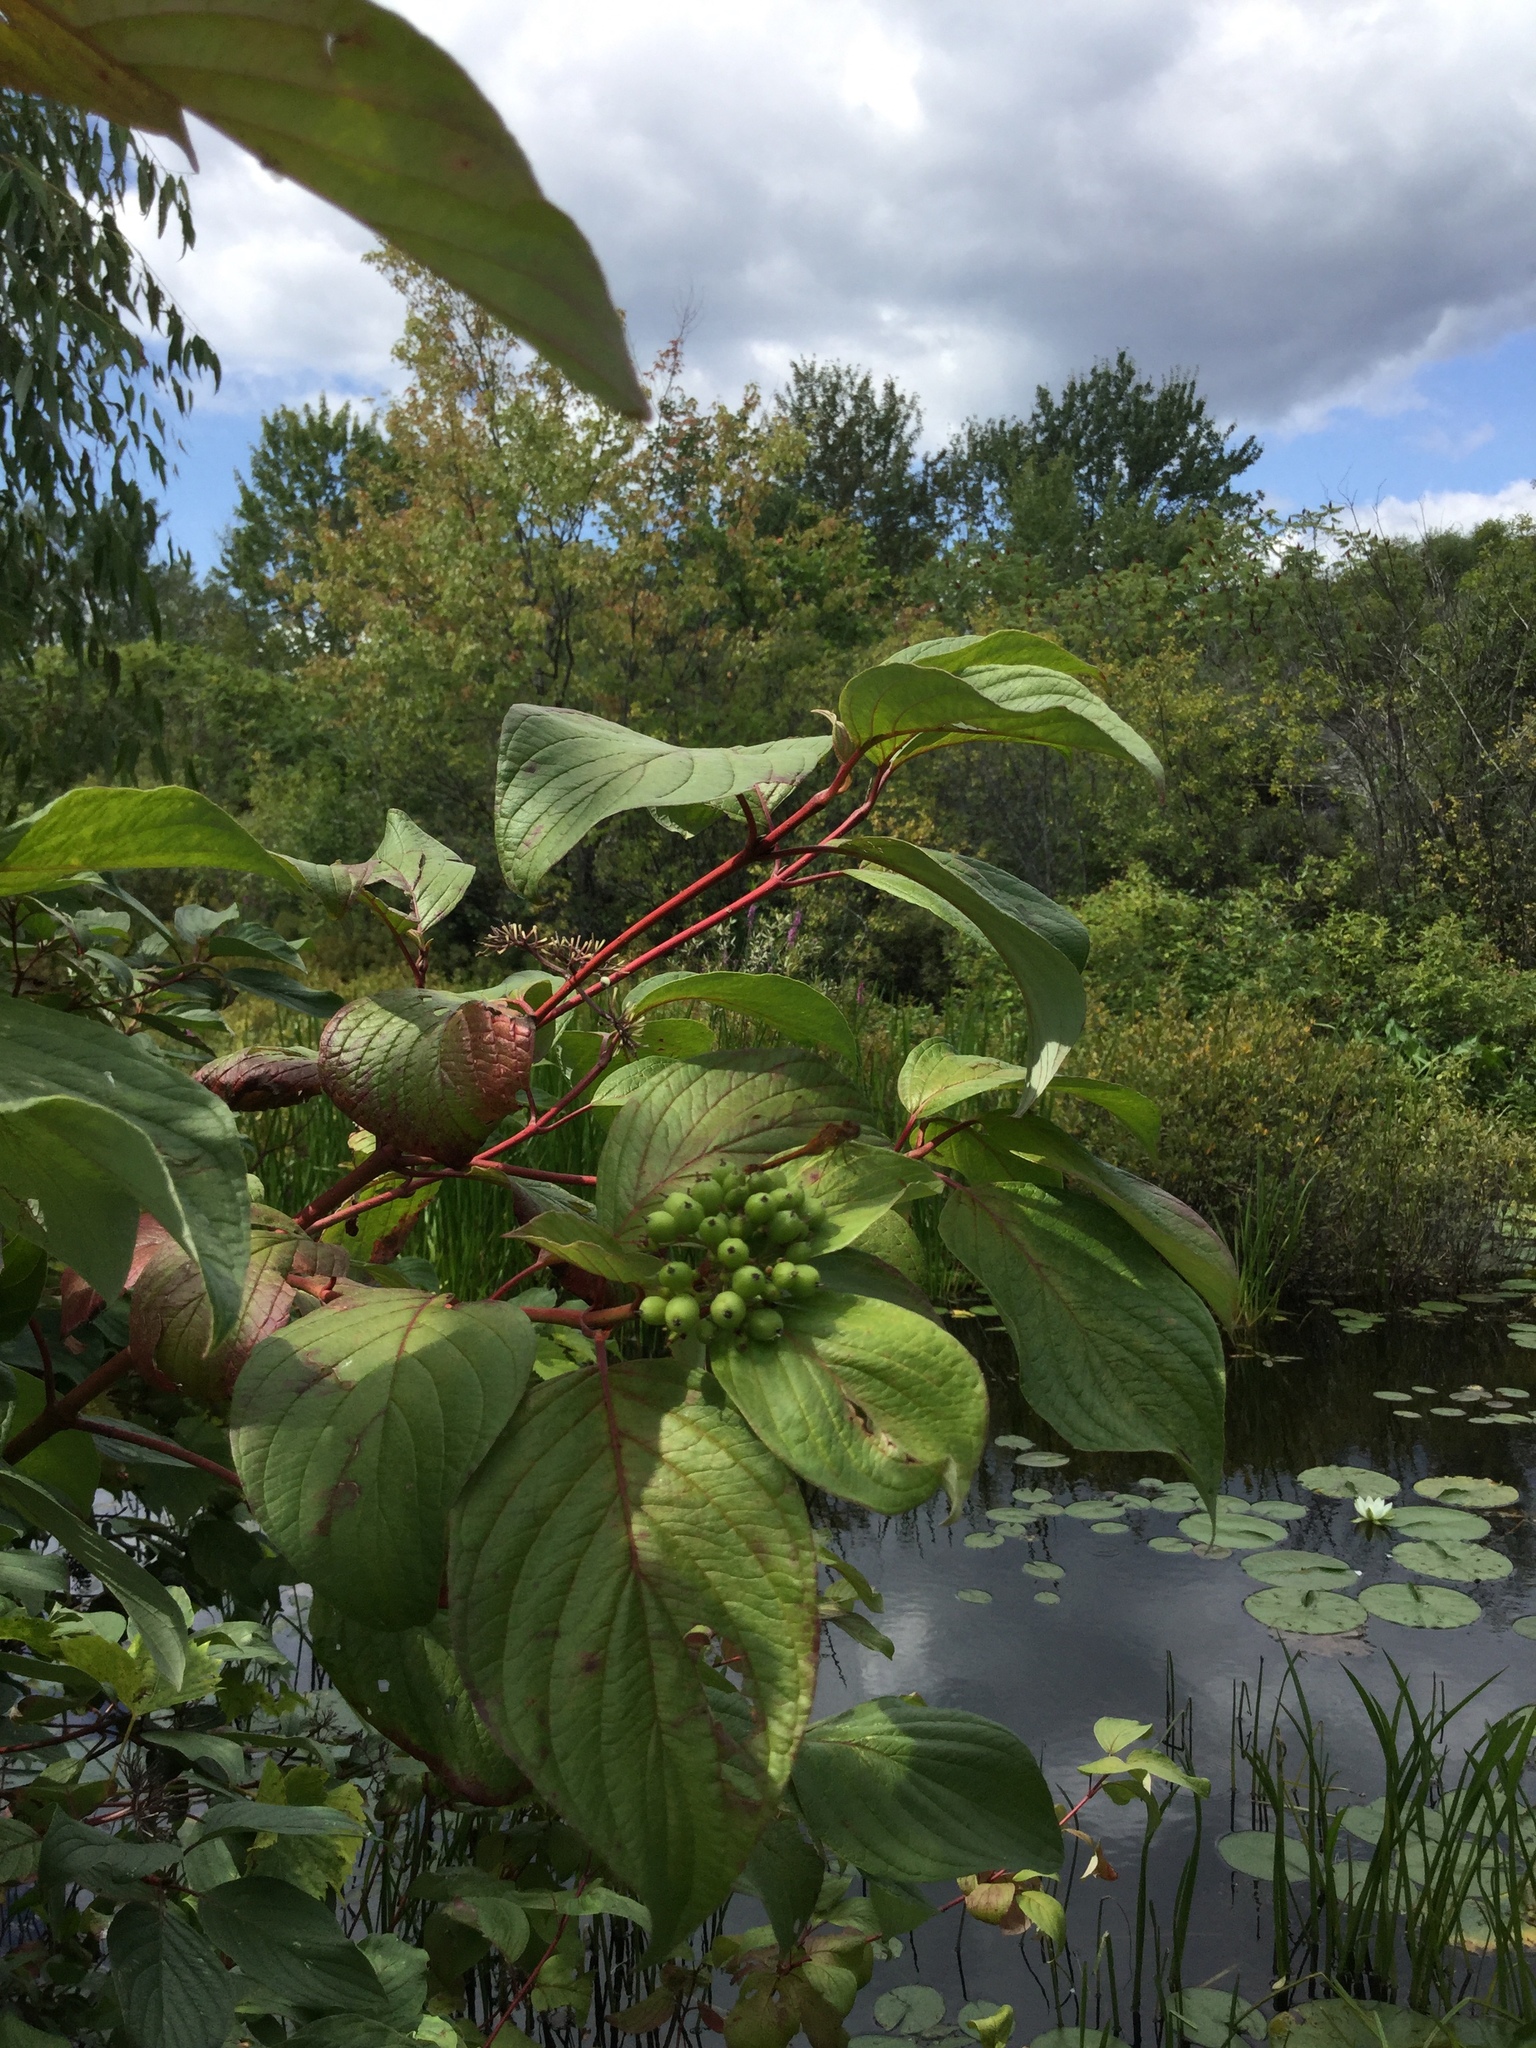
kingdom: Plantae
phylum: Tracheophyta
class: Magnoliopsida
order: Cornales
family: Cornaceae
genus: Cornus
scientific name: Cornus sericea
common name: Red-osier dogwood
